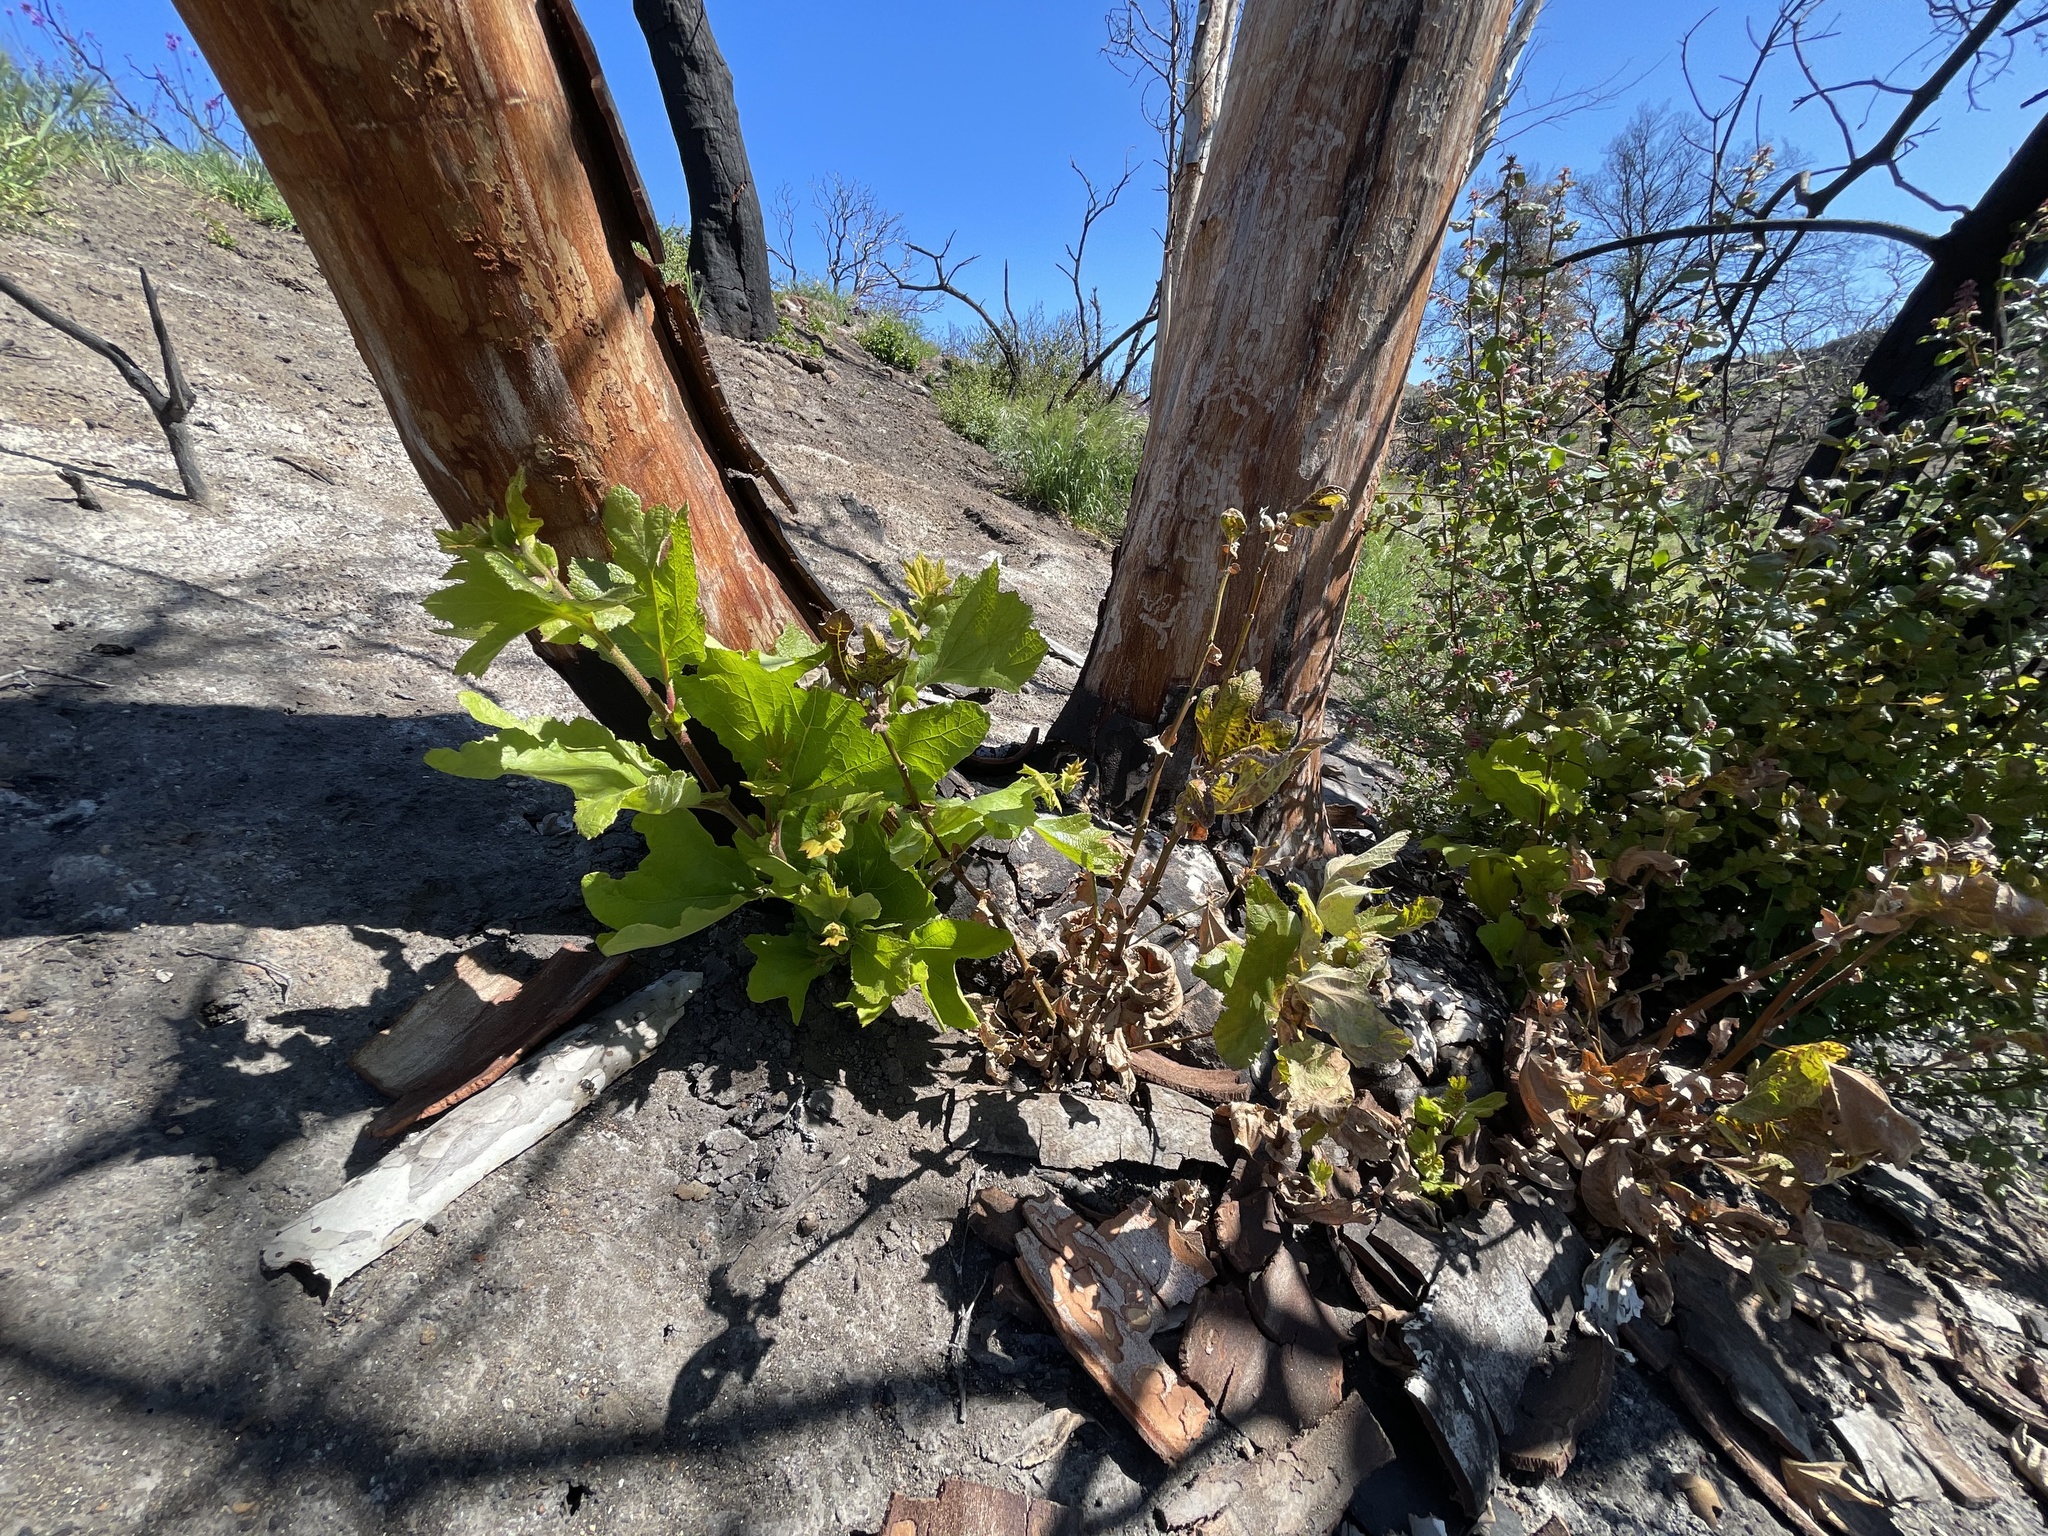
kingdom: Plantae
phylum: Tracheophyta
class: Magnoliopsida
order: Proteales
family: Platanaceae
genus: Platanus
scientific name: Platanus racemosa
